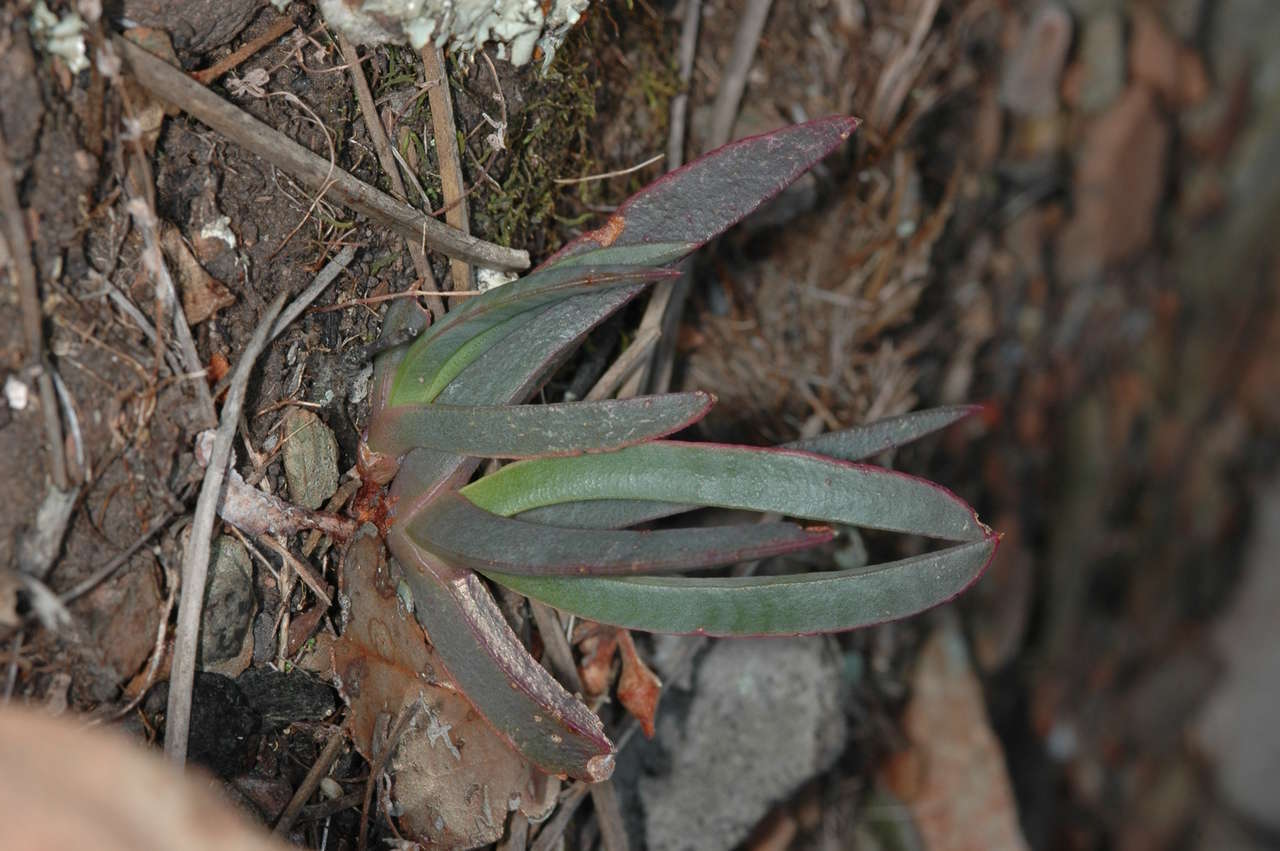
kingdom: Plantae
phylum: Tracheophyta
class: Magnoliopsida
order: Caryophyllales
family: Aizoaceae
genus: Carpobrotus
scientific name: Carpobrotus modestus
